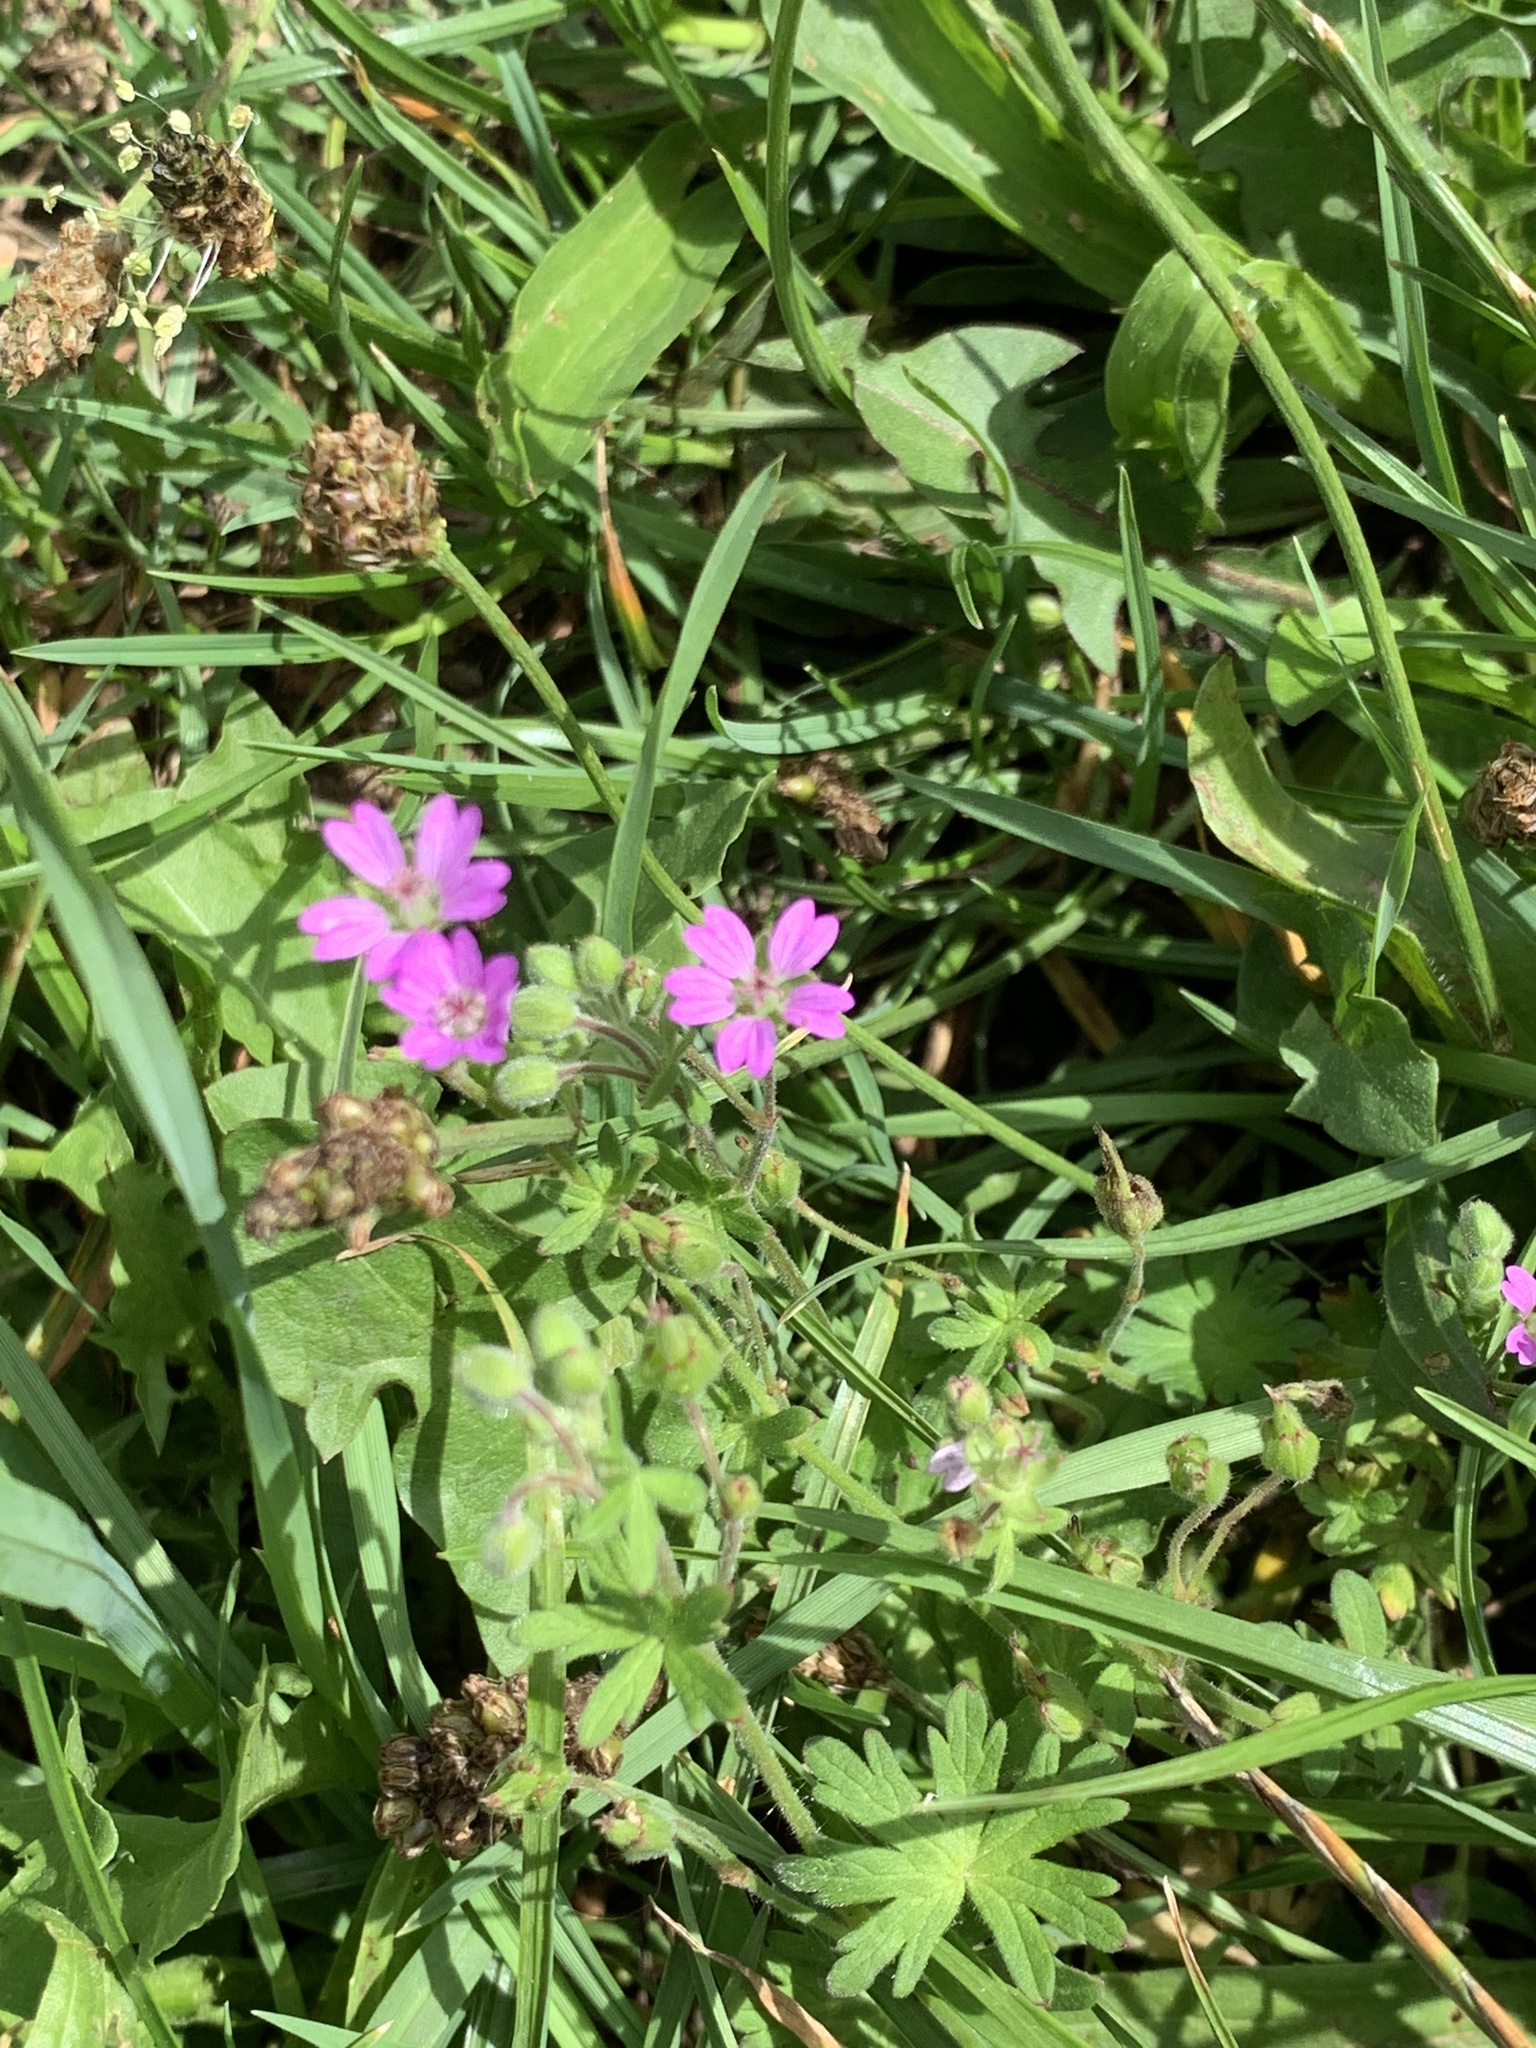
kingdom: Plantae
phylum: Tracheophyta
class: Magnoliopsida
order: Geraniales
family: Geraniaceae
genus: Geranium
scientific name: Geranium molle
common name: Dove's-foot crane's-bill
